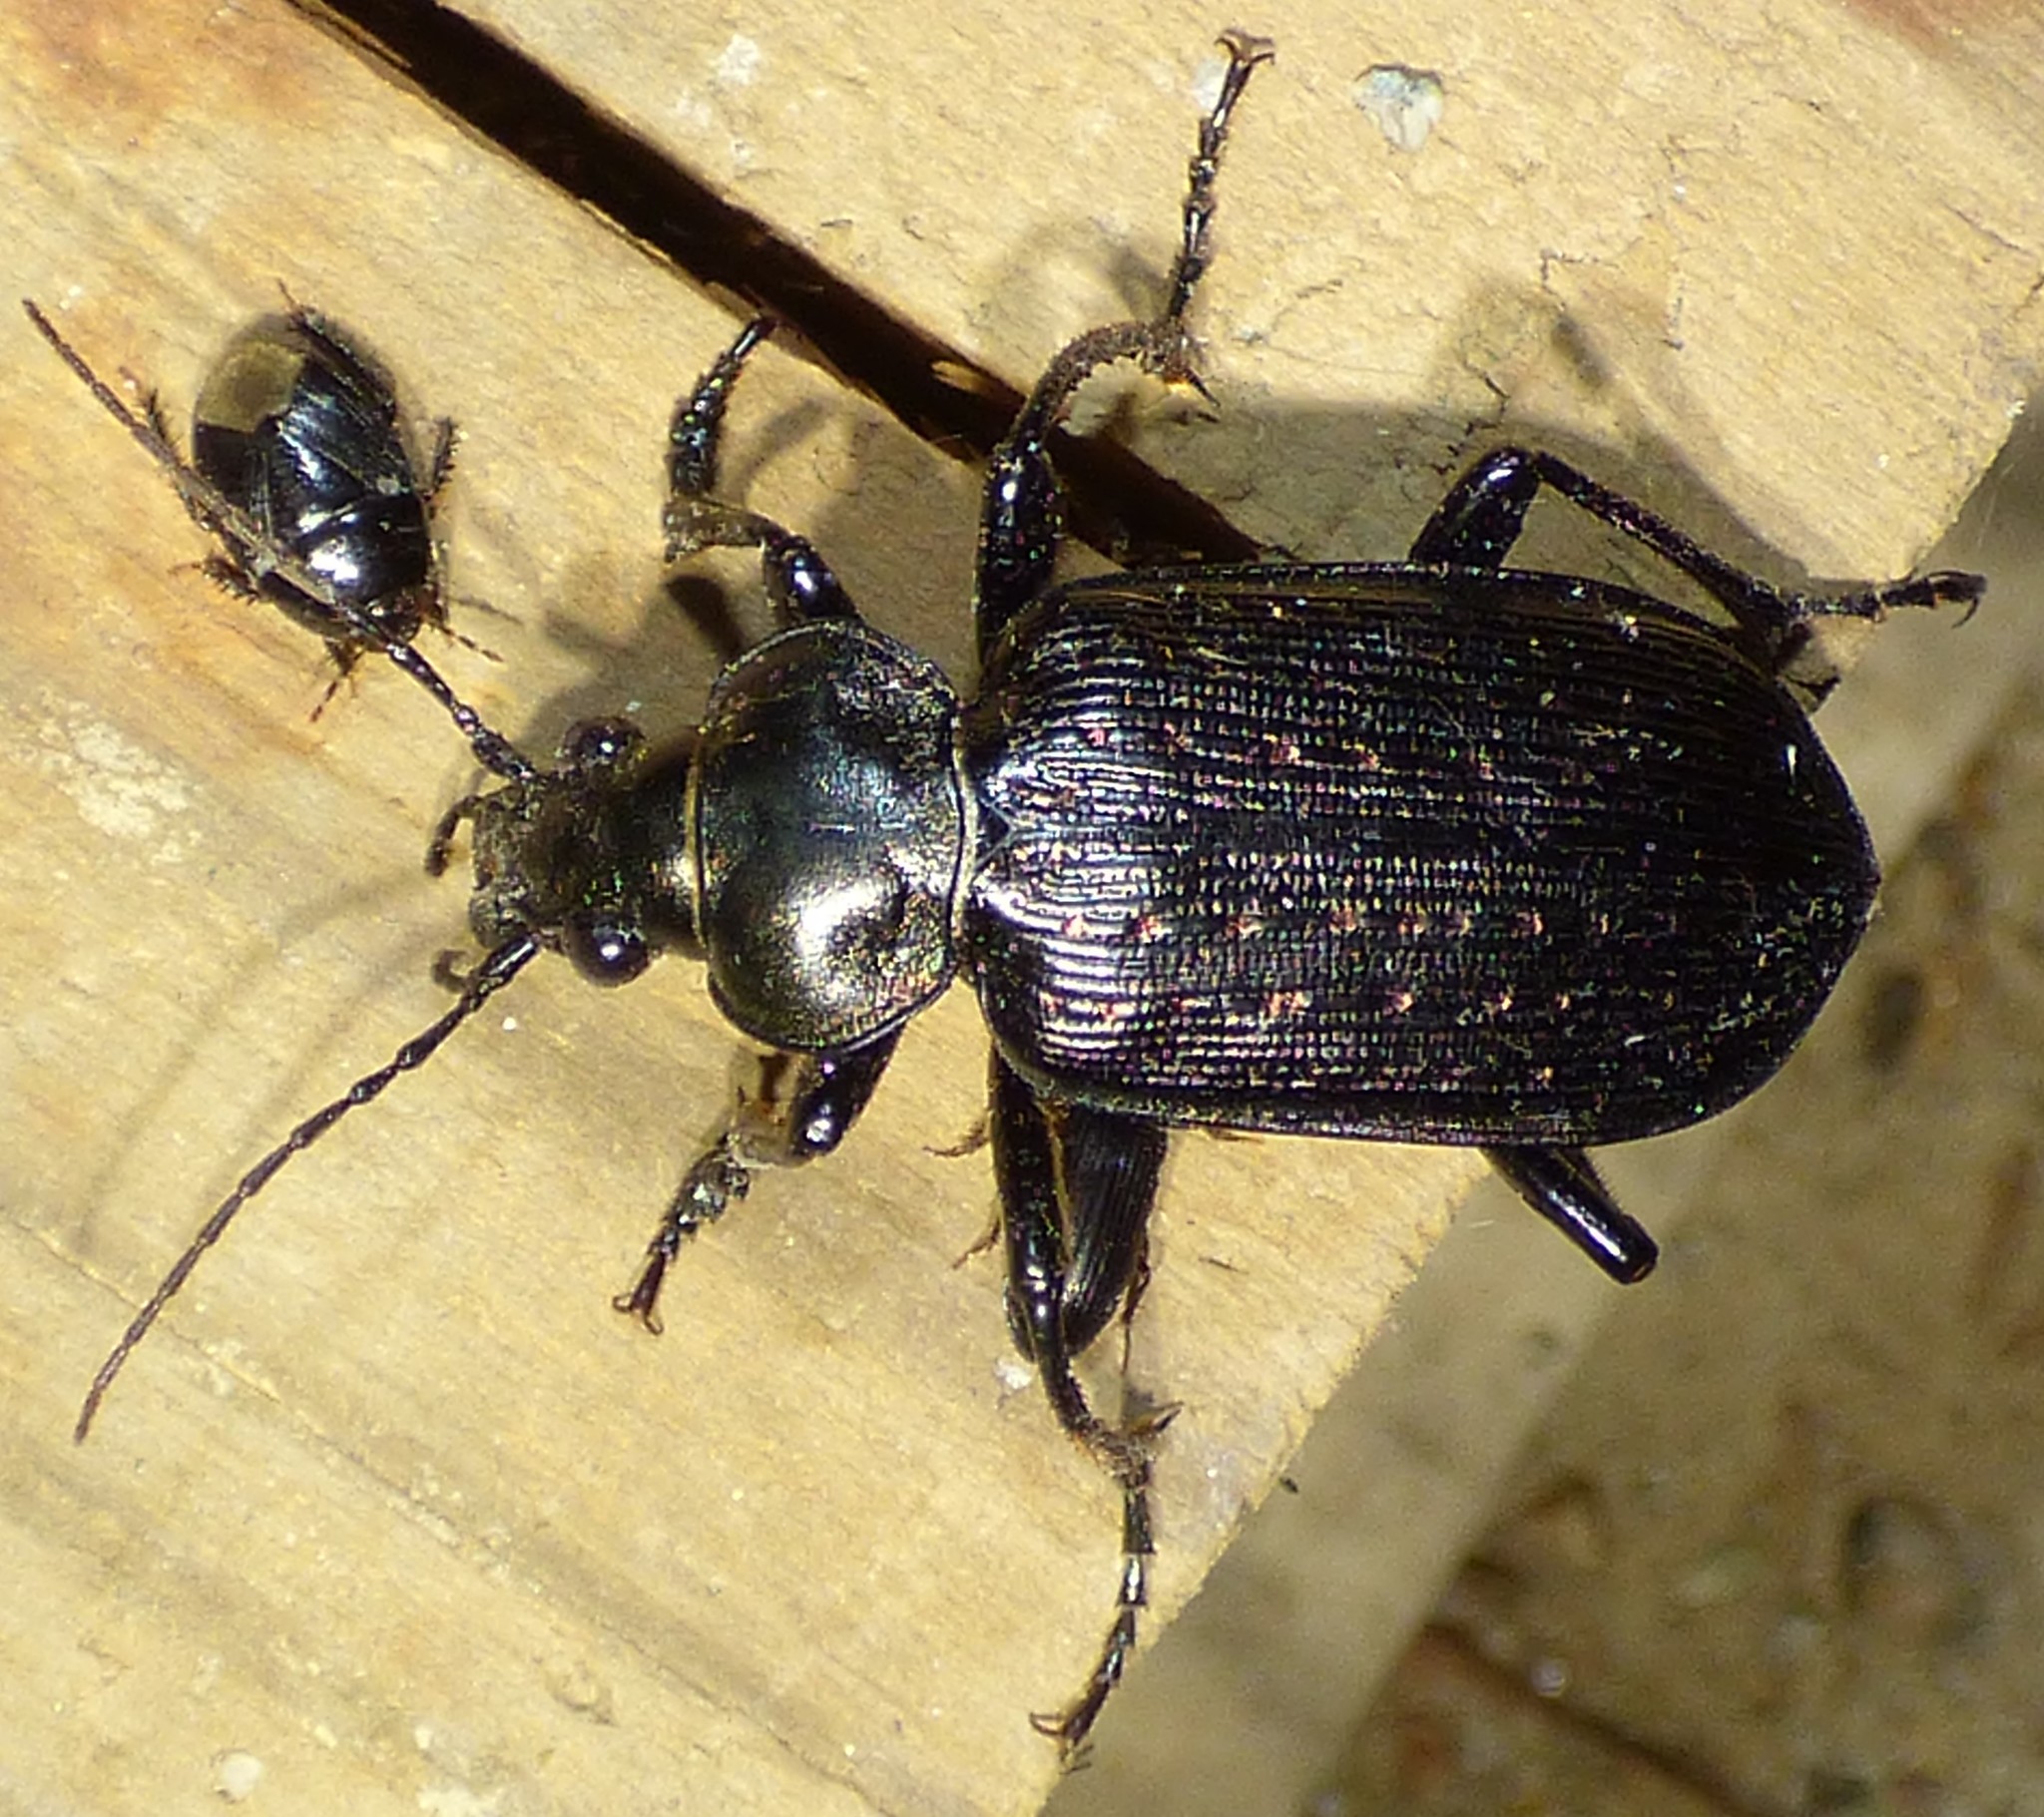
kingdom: Animalia
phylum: Arthropoda
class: Insecta
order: Coleoptera
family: Carabidae
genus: Calosoma
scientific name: Calosoma sayi
